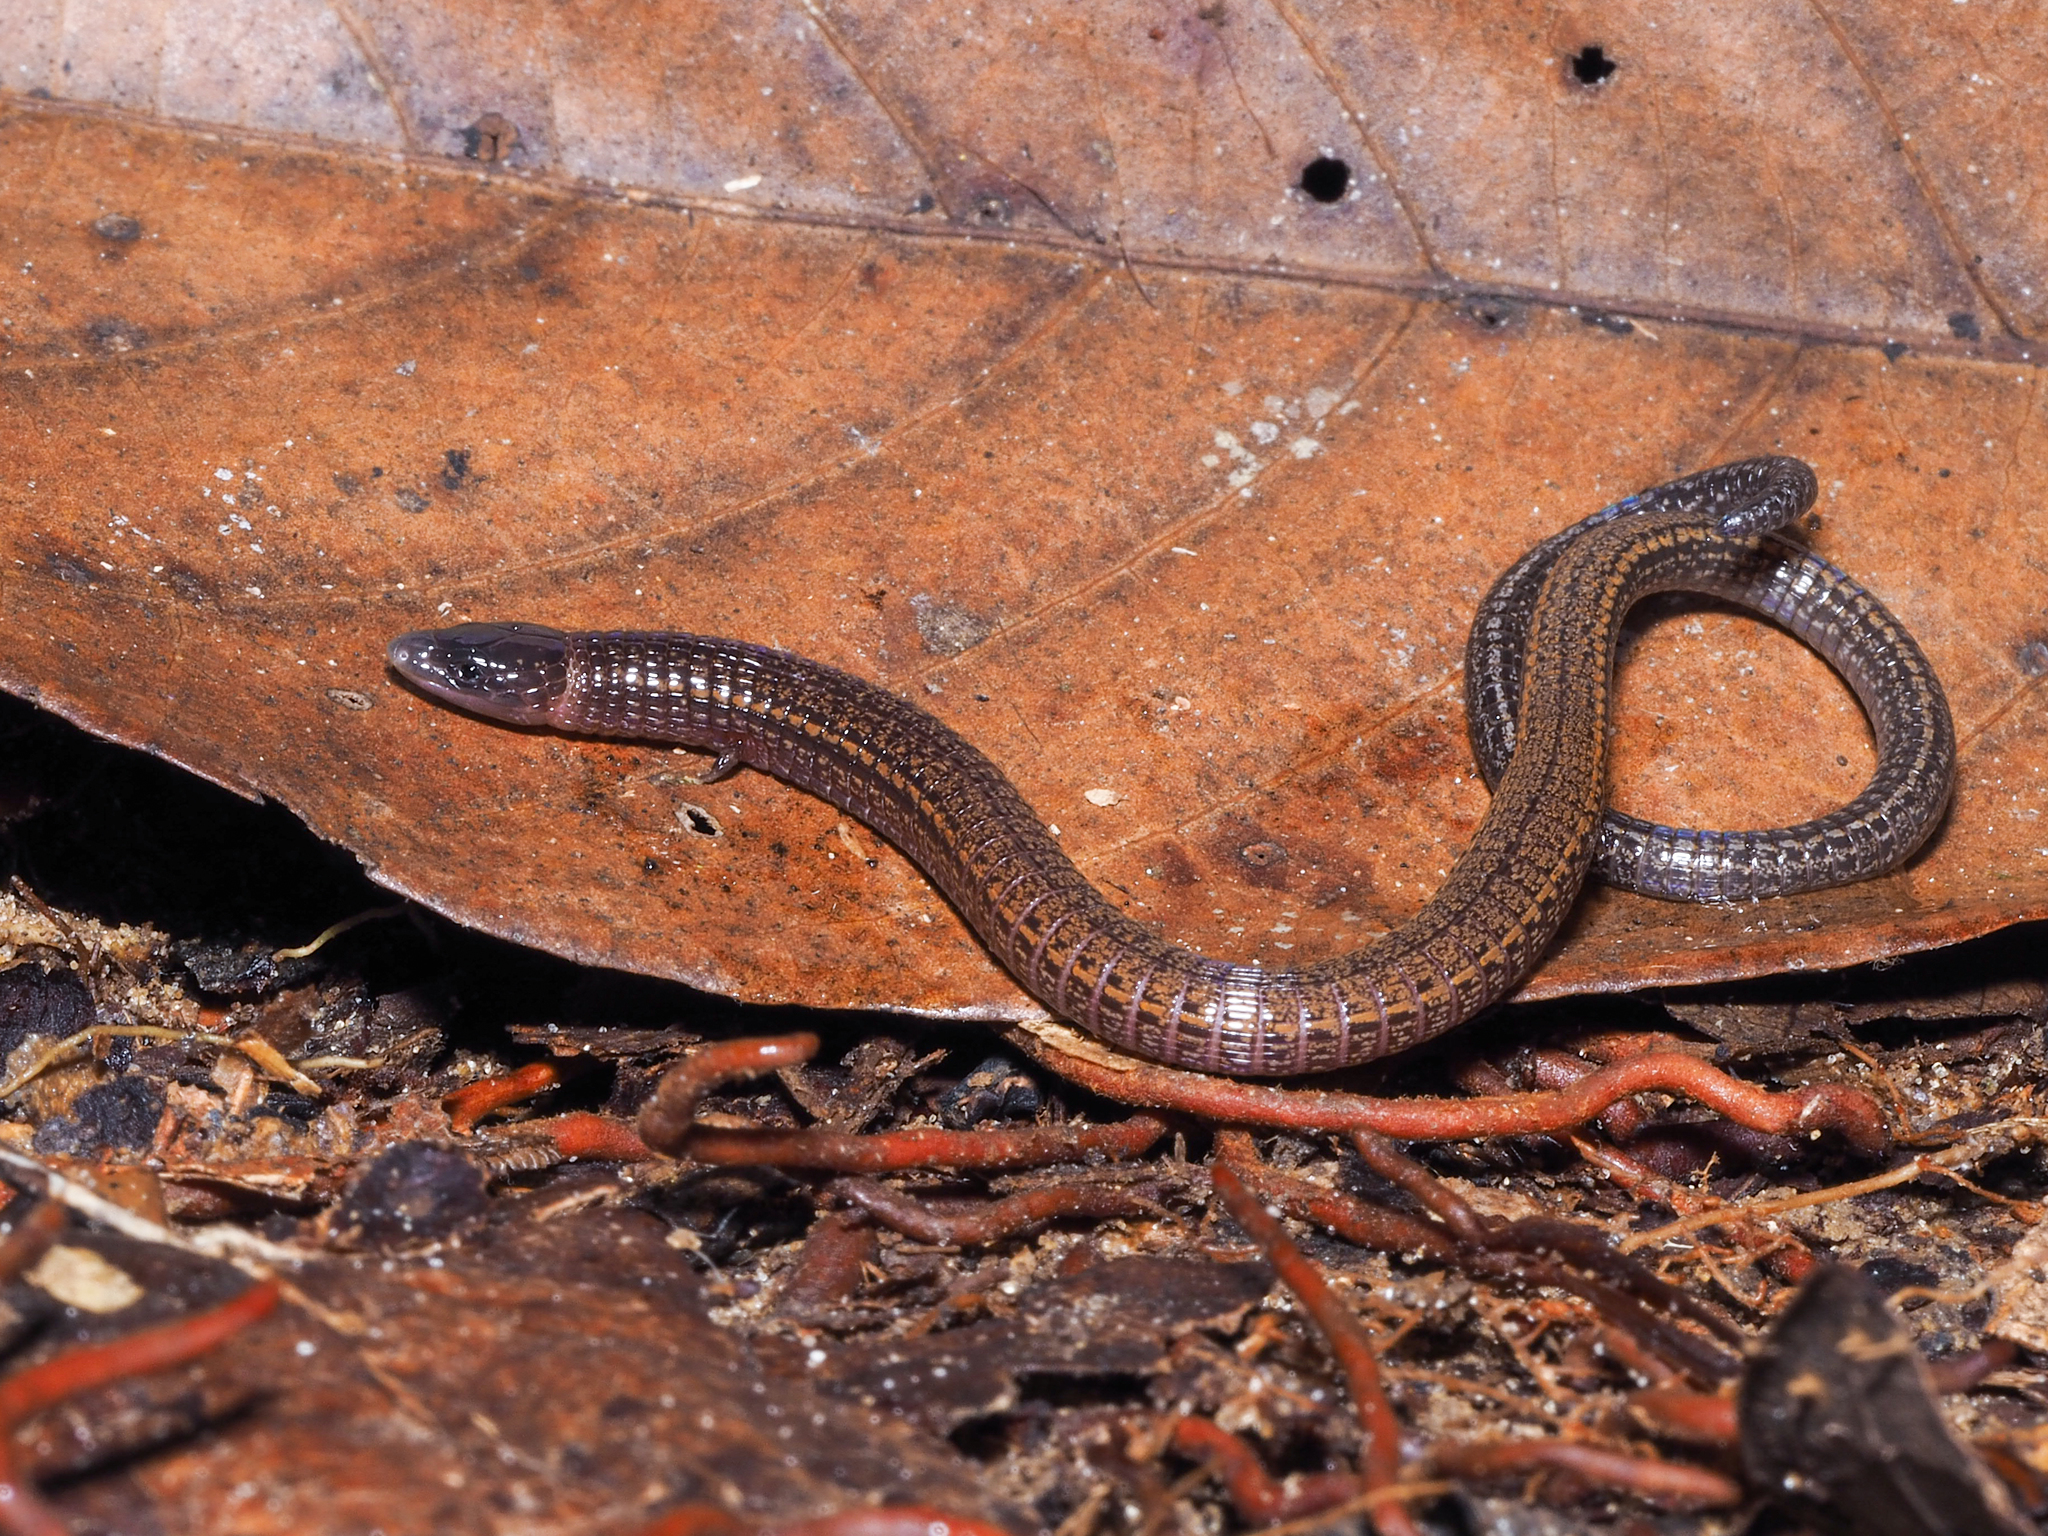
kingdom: Animalia
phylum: Chordata
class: Squamata
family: Gymnophthalmidae
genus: Bachia
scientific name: Bachia flavescens
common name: Yellow-lined bachia
